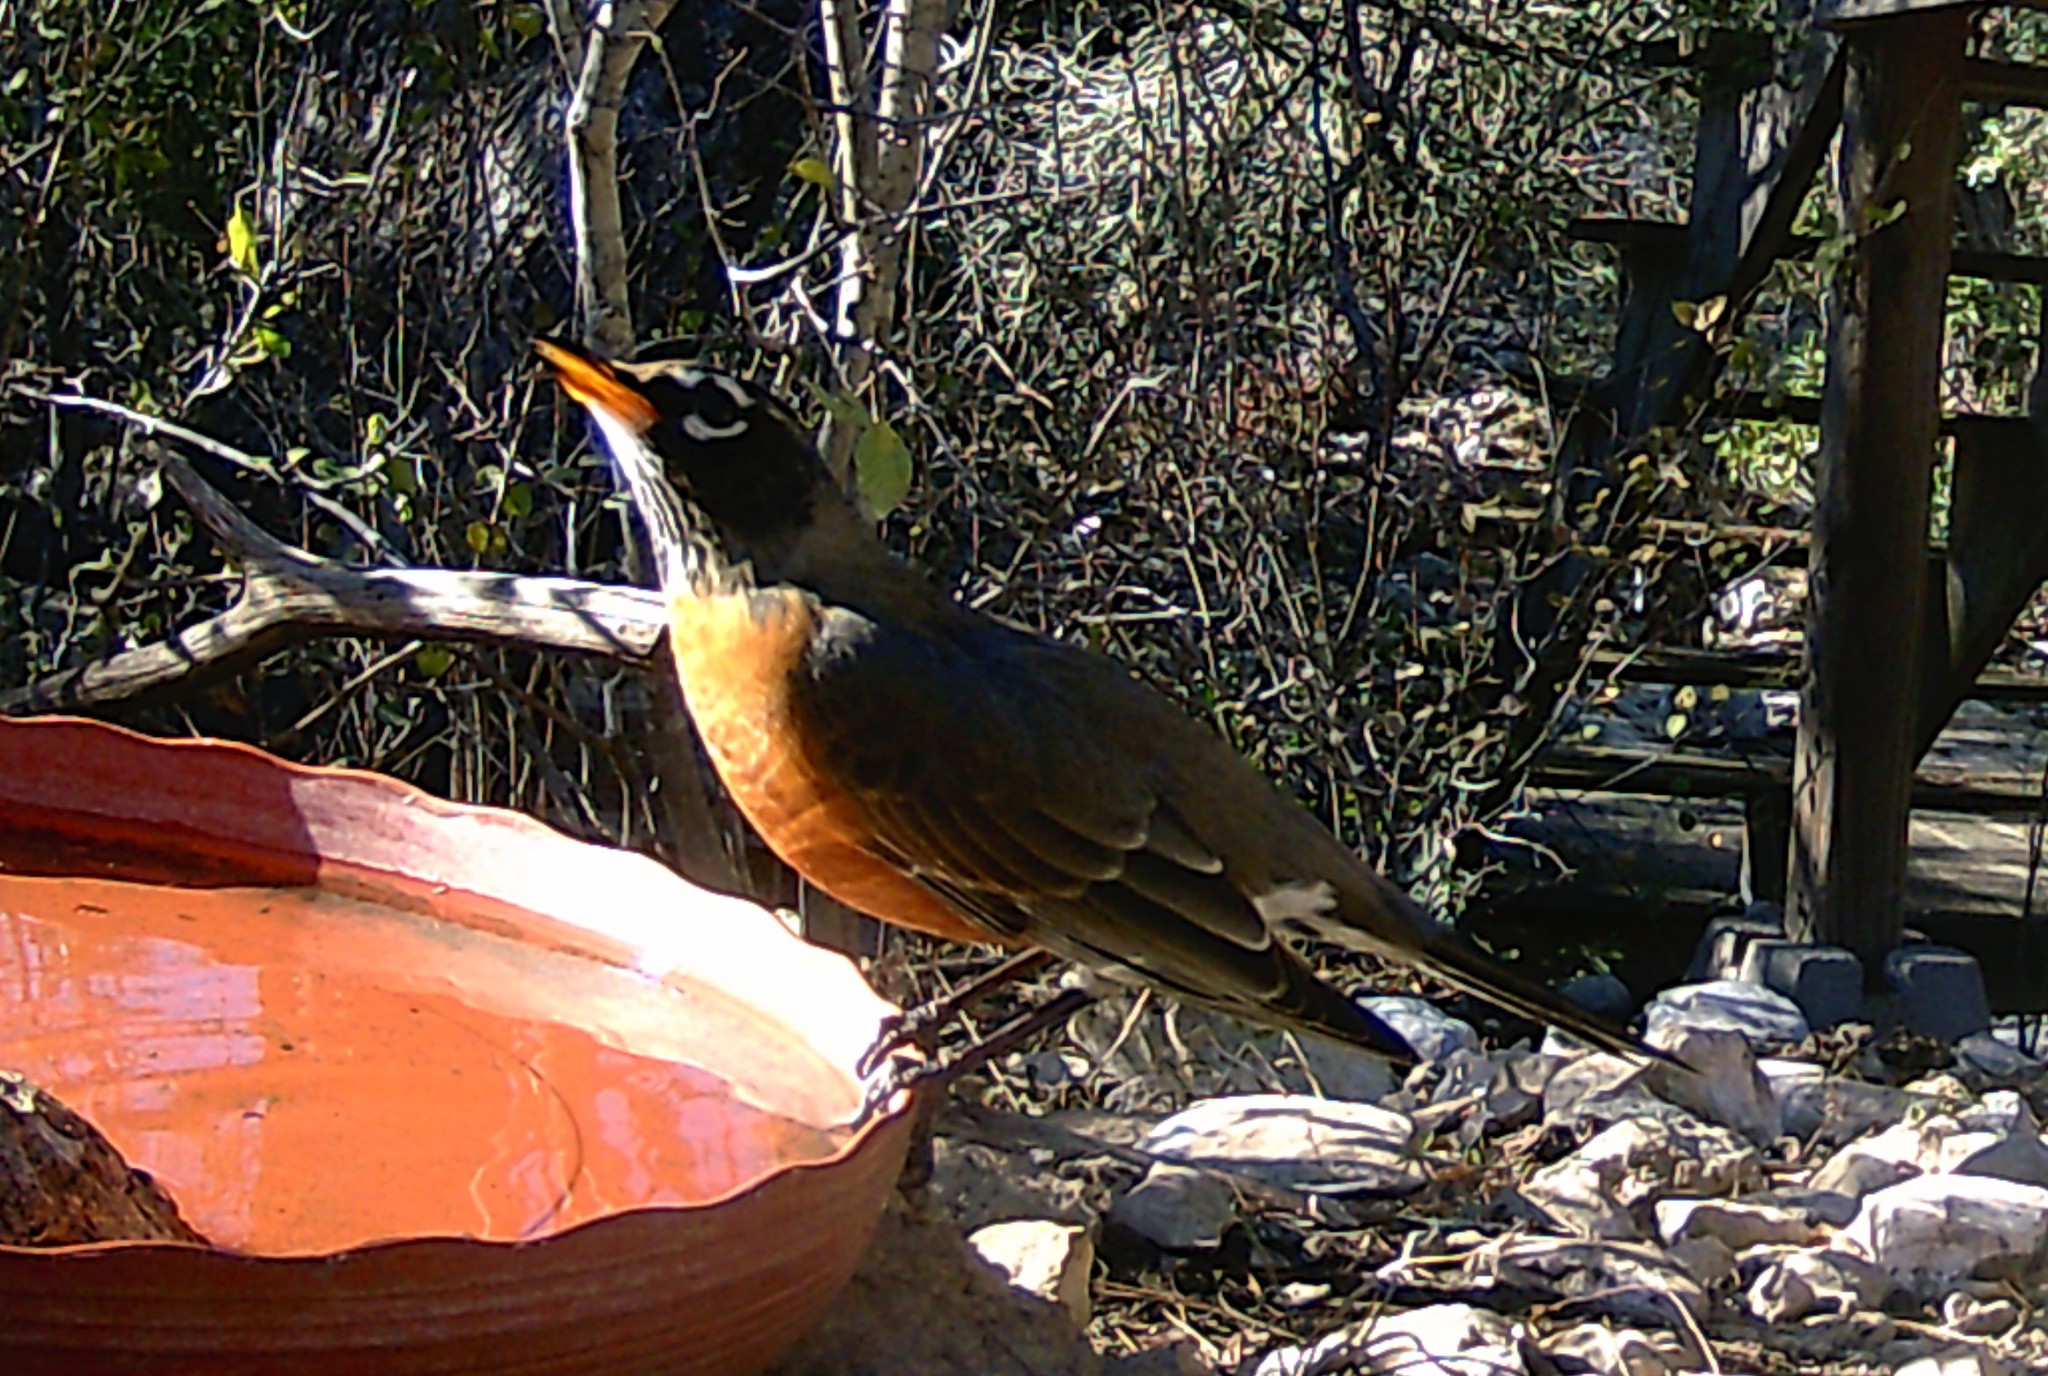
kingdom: Animalia
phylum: Chordata
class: Aves
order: Passeriformes
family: Turdidae
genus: Turdus
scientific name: Turdus migratorius
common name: American robin
